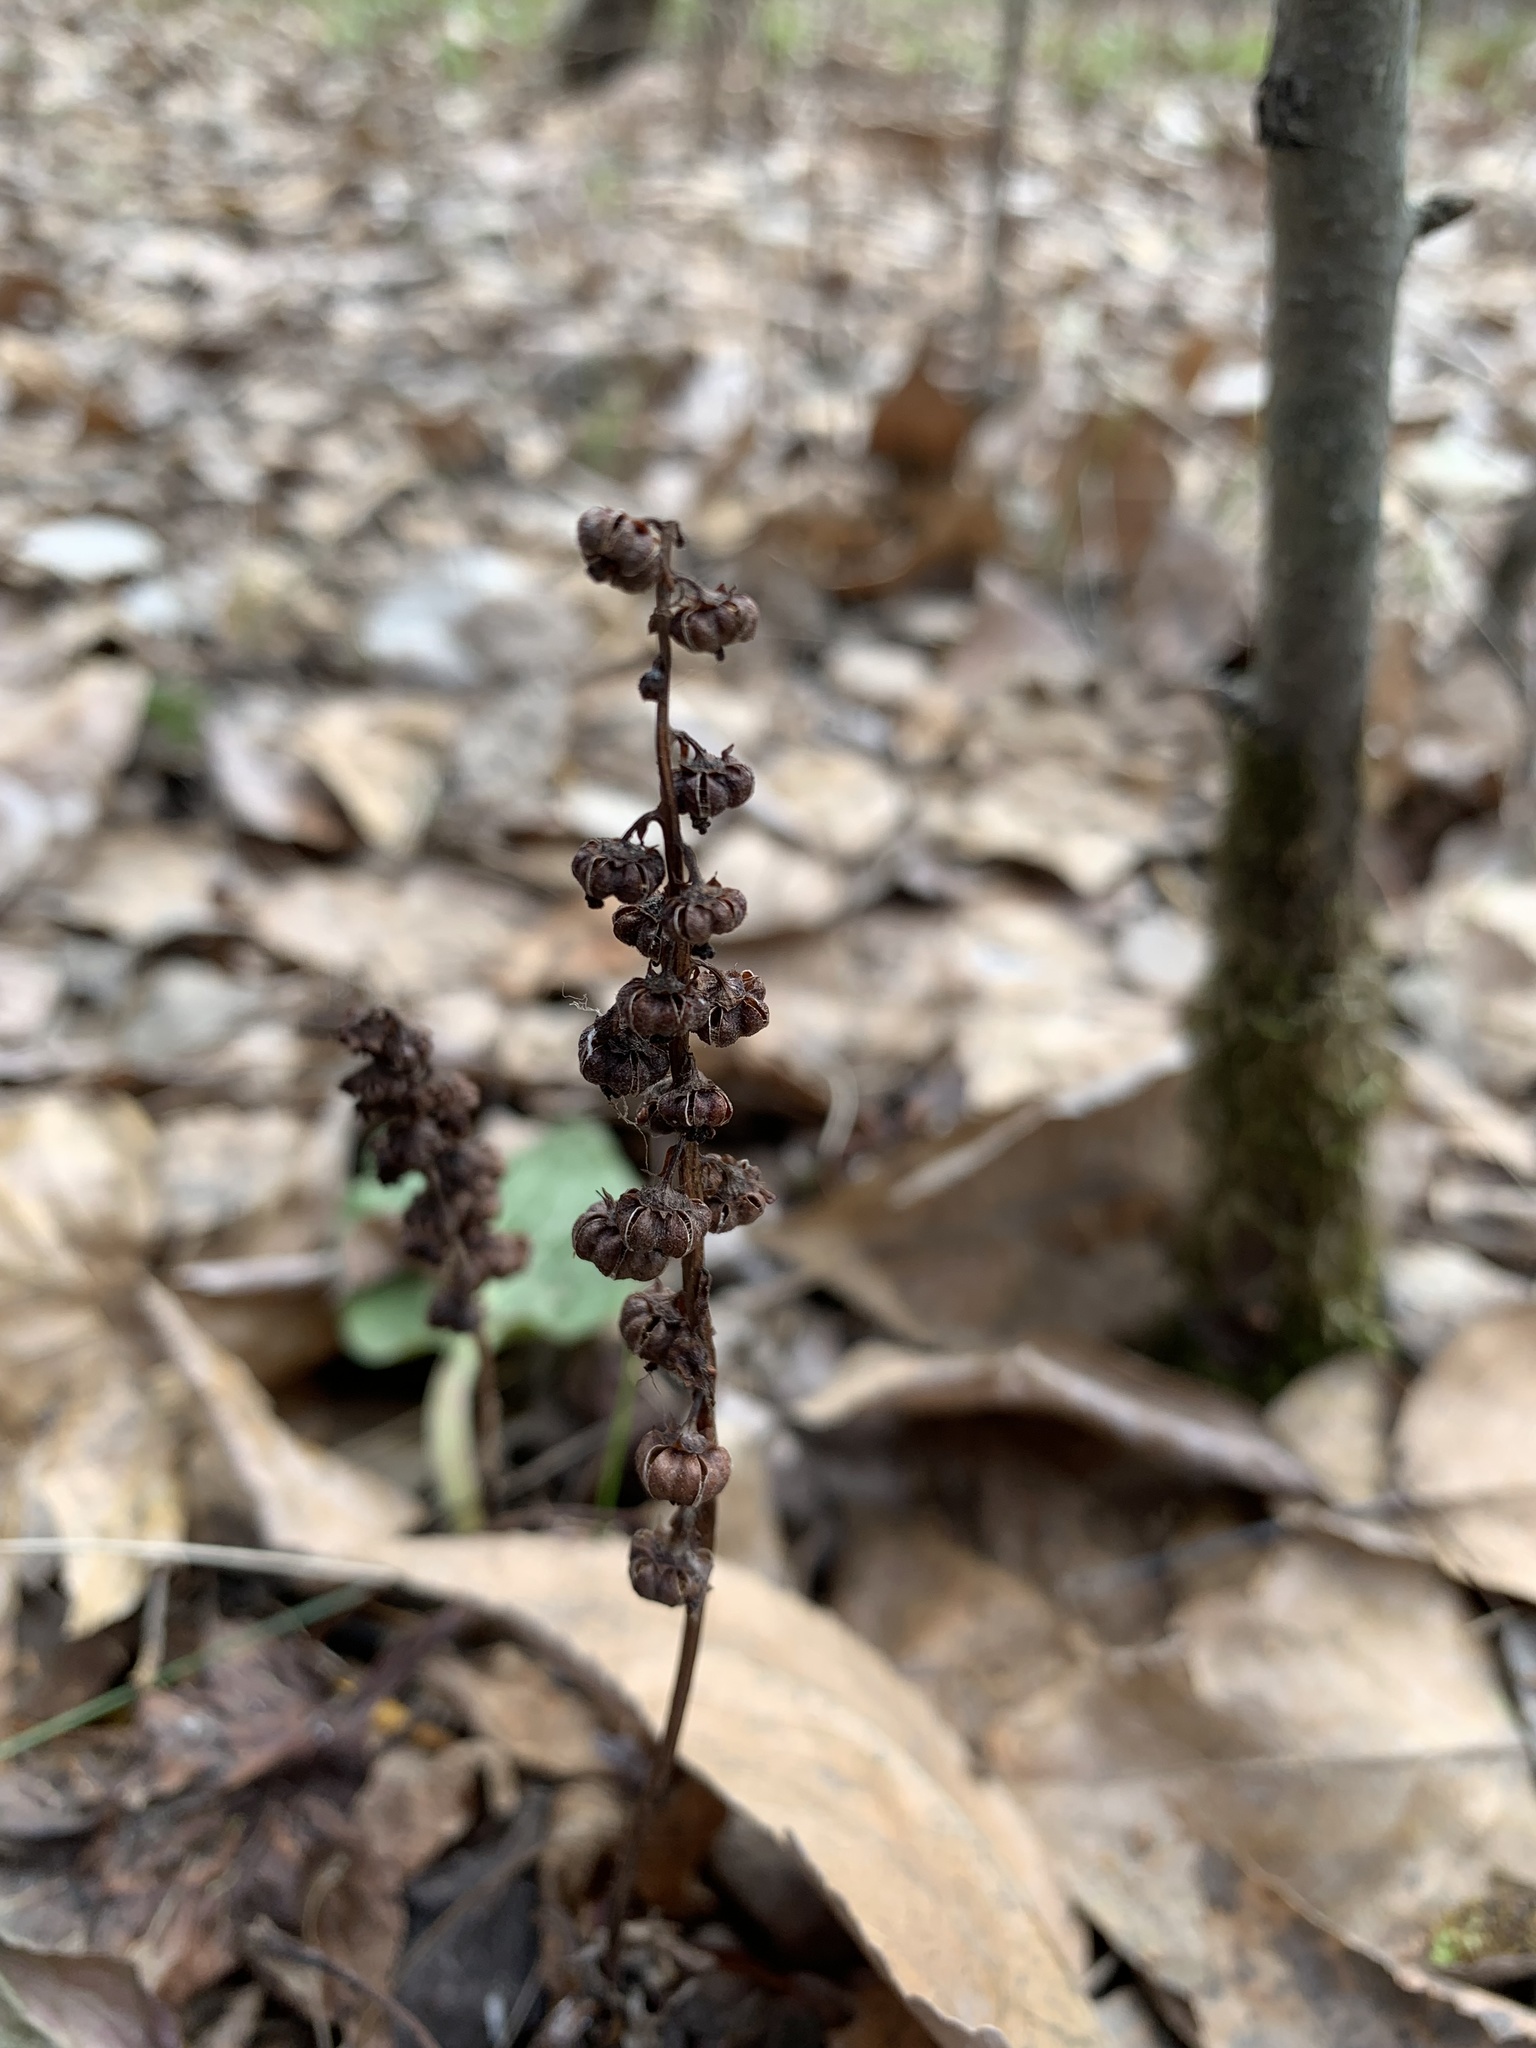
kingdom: Plantae
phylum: Tracheophyta
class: Magnoliopsida
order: Ericales
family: Ericaceae
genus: Pyrola
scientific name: Pyrola minor
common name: Common wintergreen
